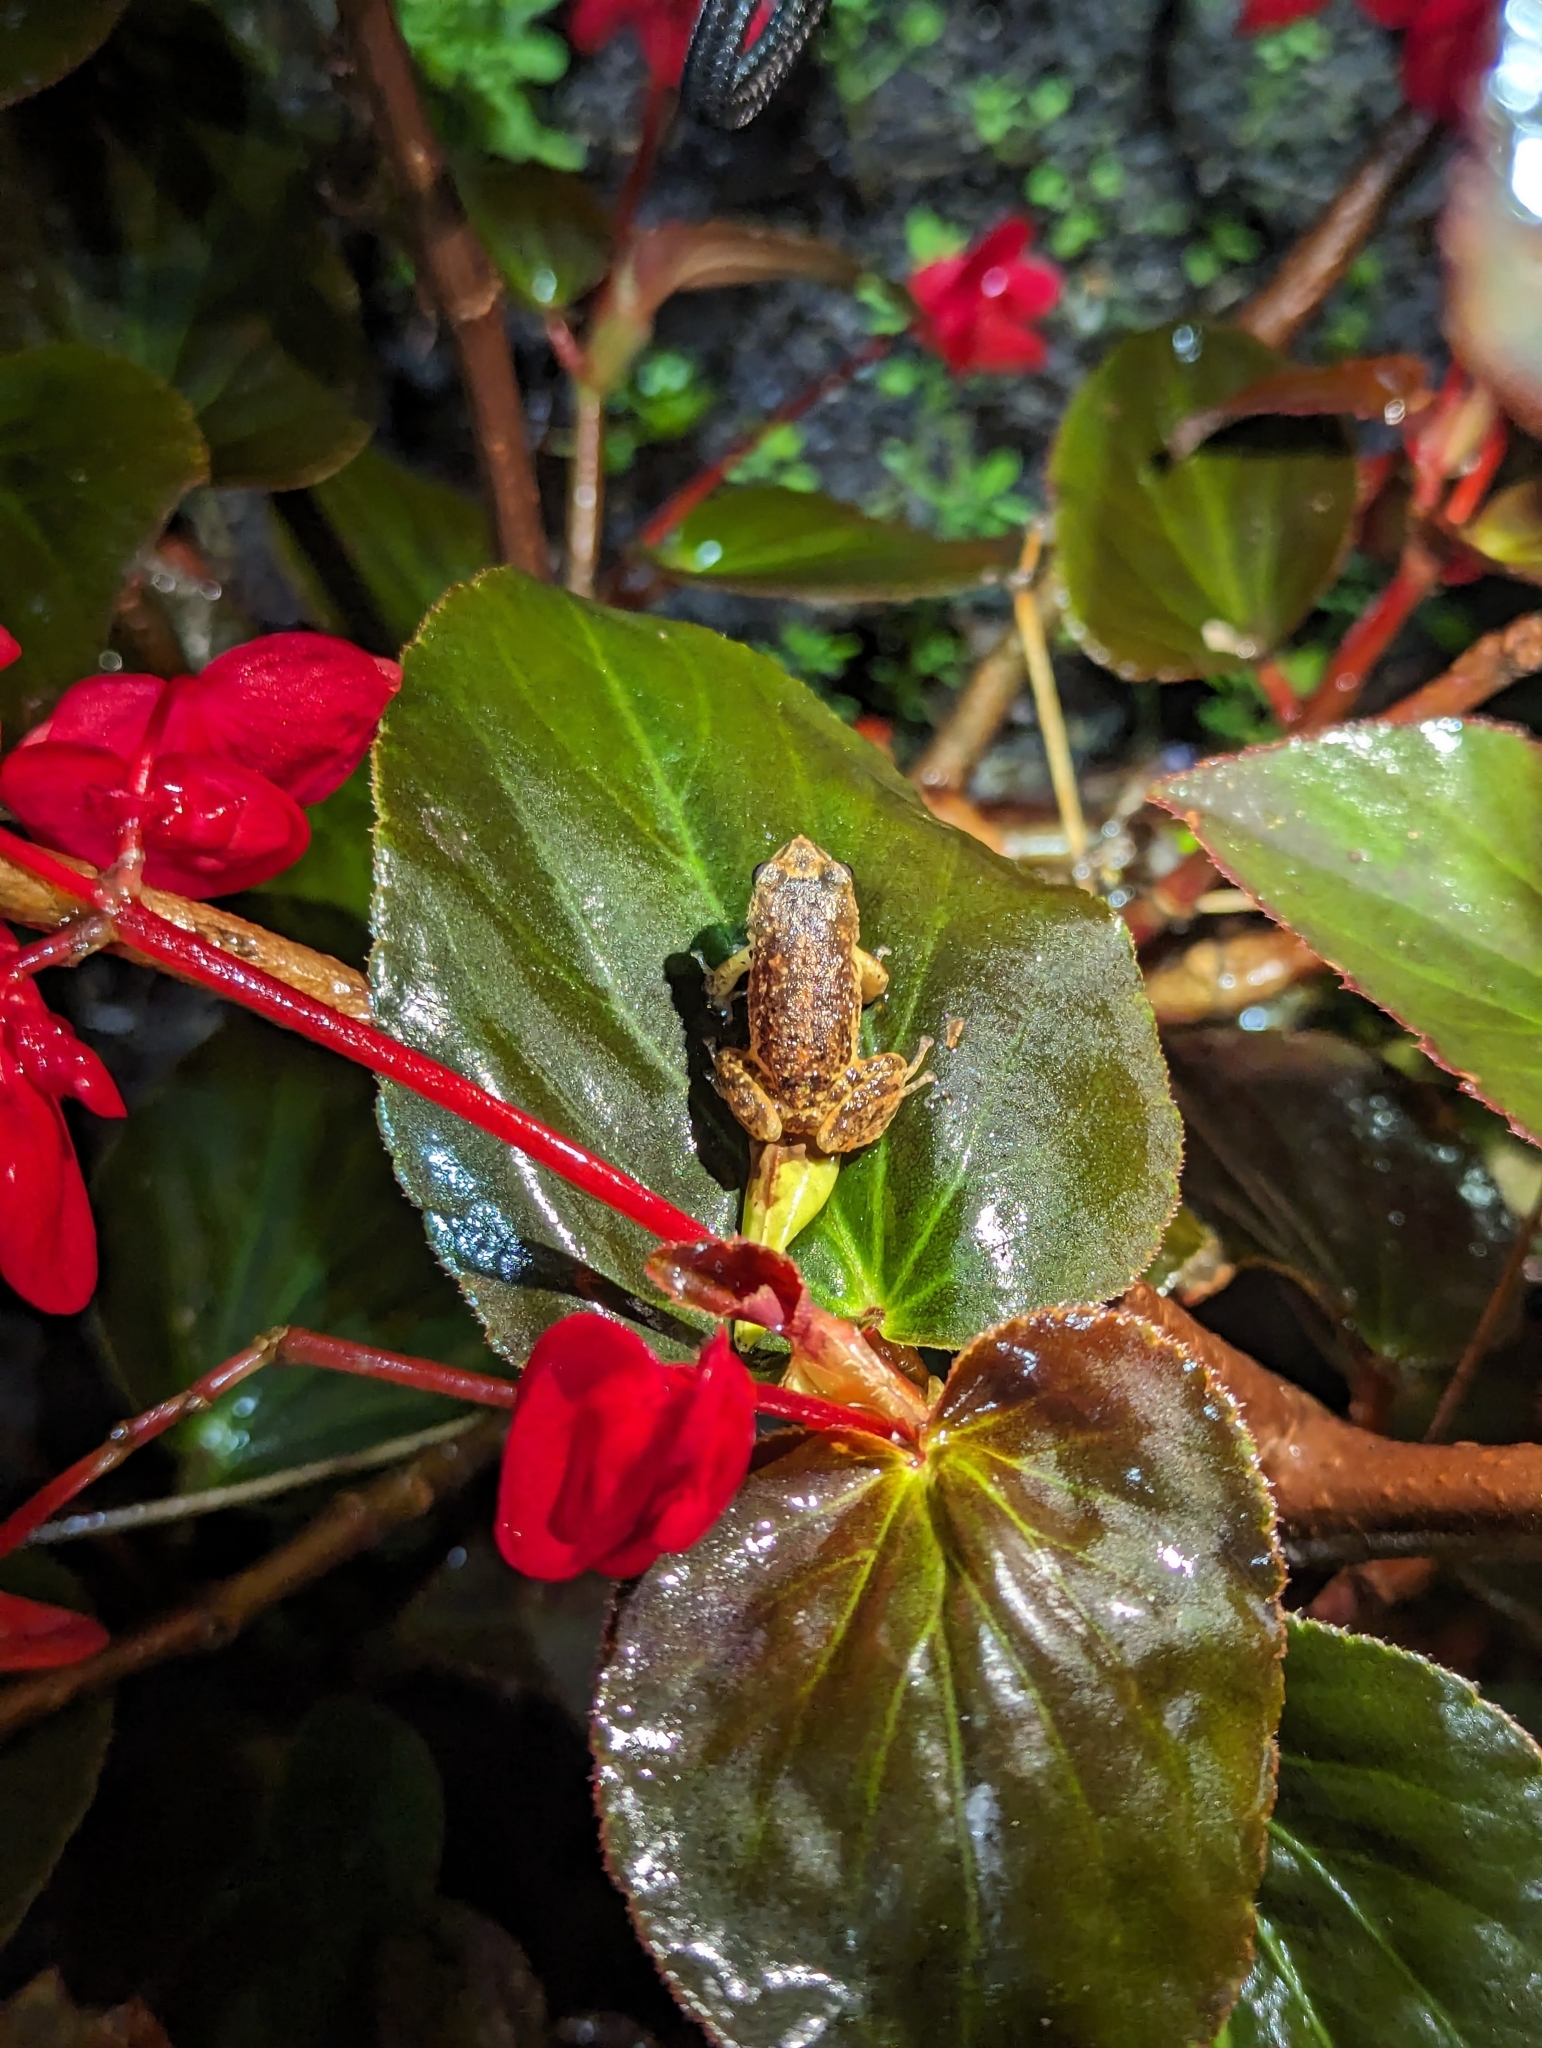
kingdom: Animalia
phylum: Chordata
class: Amphibia
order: Anura
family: Craugastoridae
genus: Pristimantis
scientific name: Pristimantis unistrigatus
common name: Striped robber frog
